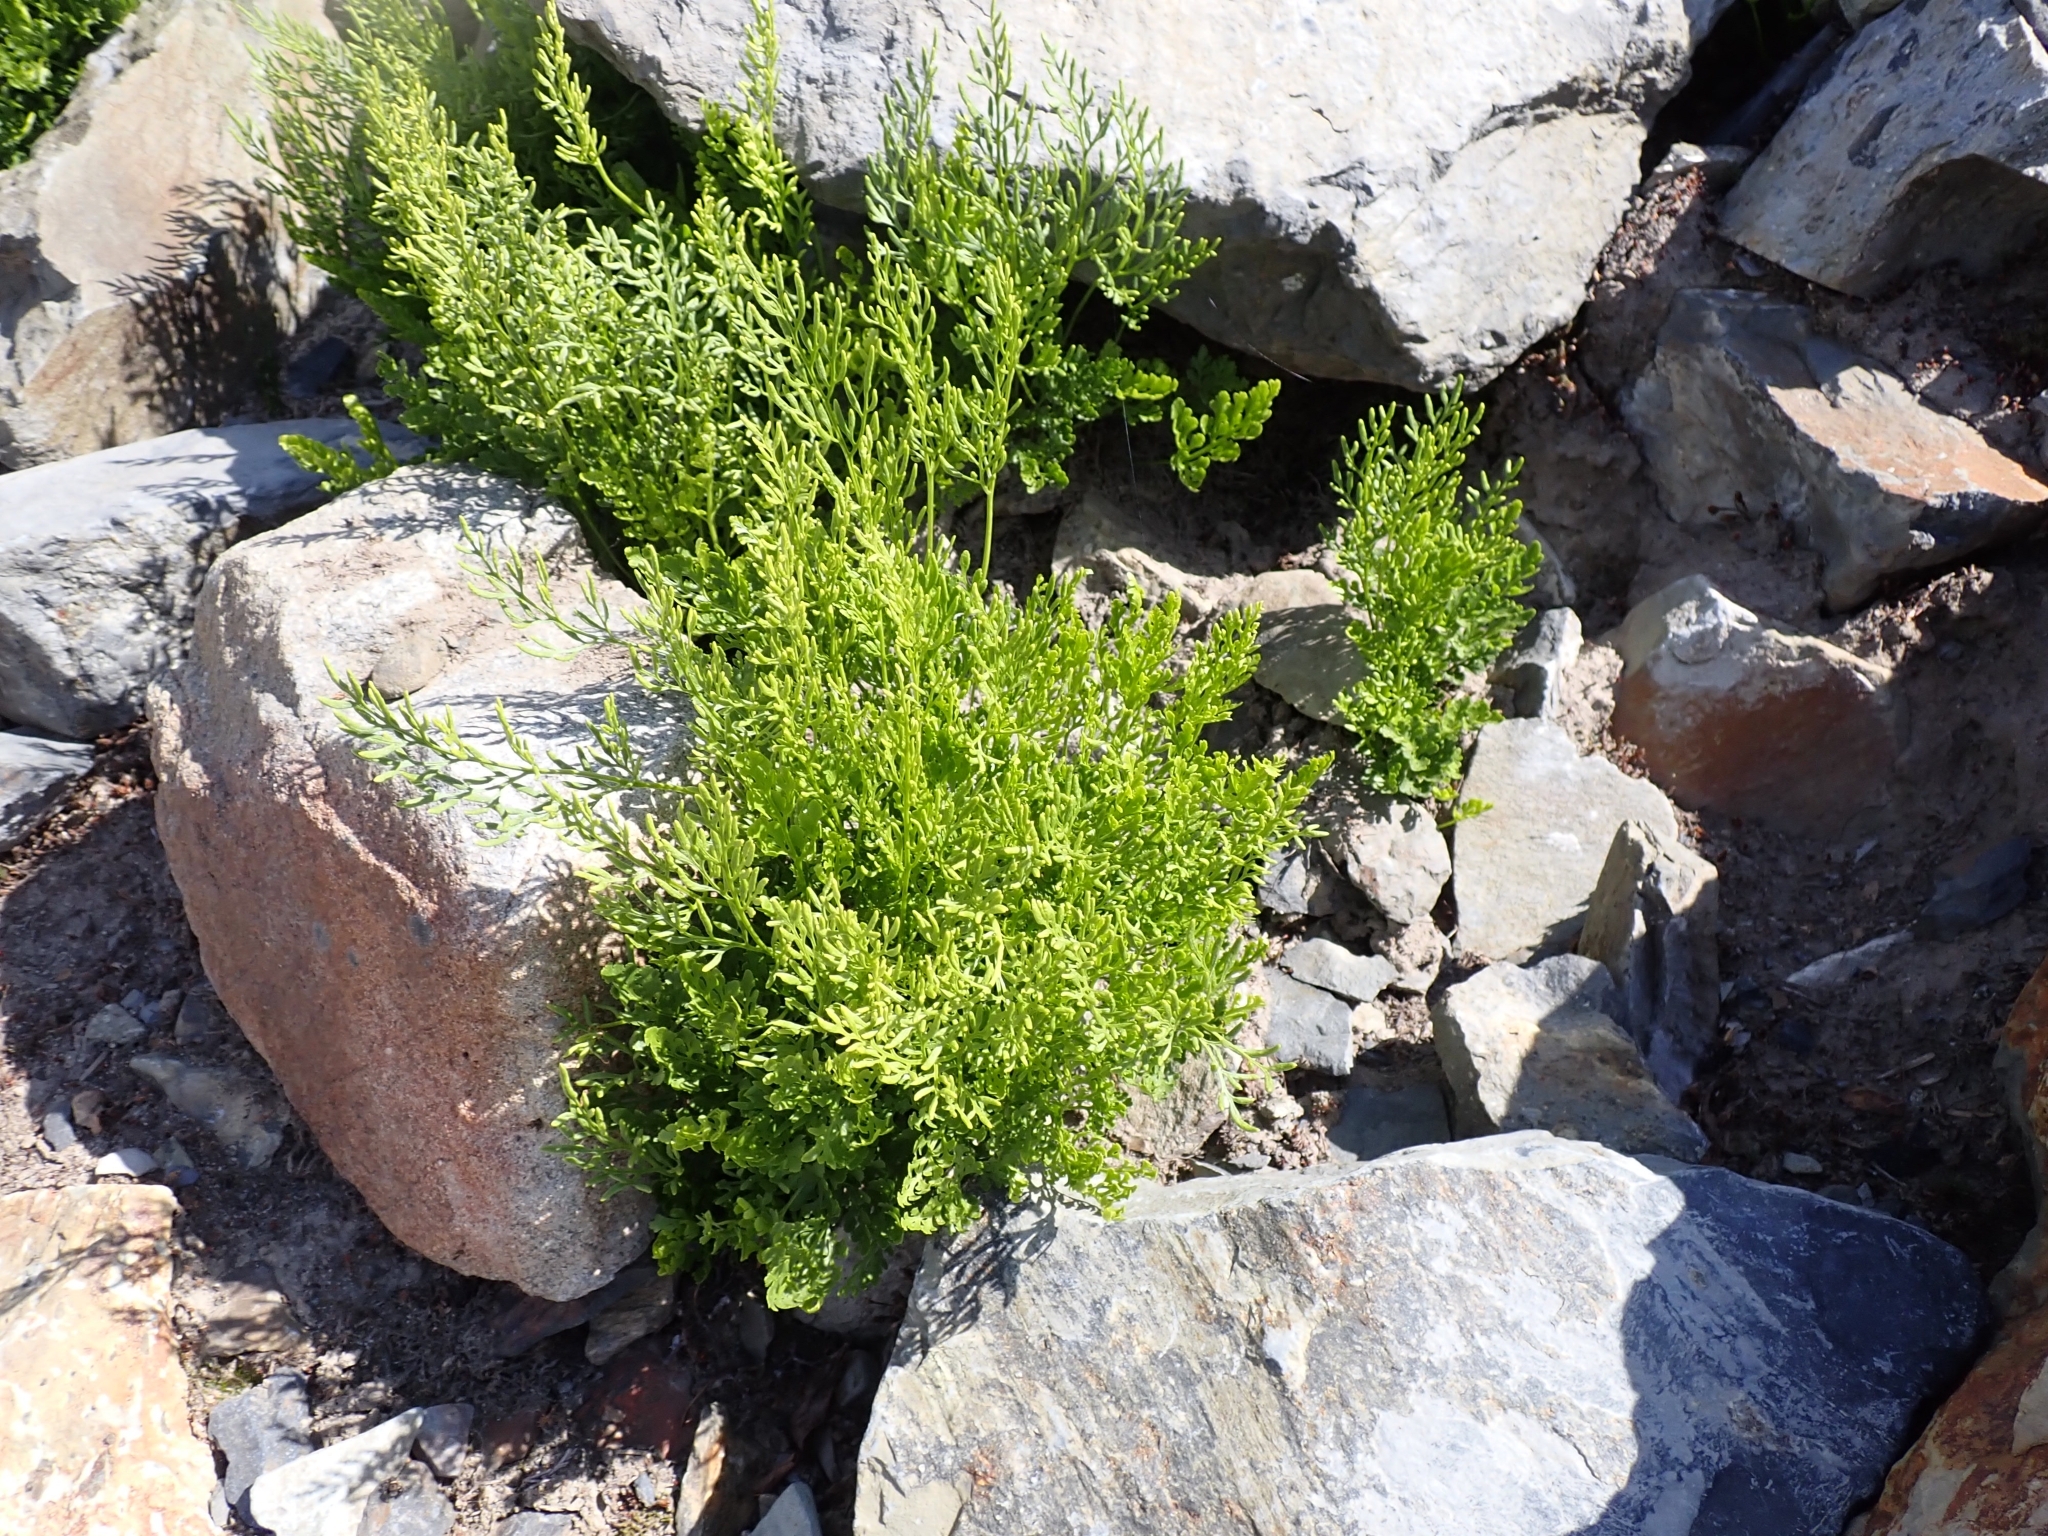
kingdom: Plantae
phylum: Tracheophyta
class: Polypodiopsida
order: Polypodiales
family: Pteridaceae
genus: Cryptogramma
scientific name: Cryptogramma cascadensis
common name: Cascade parsley fern
